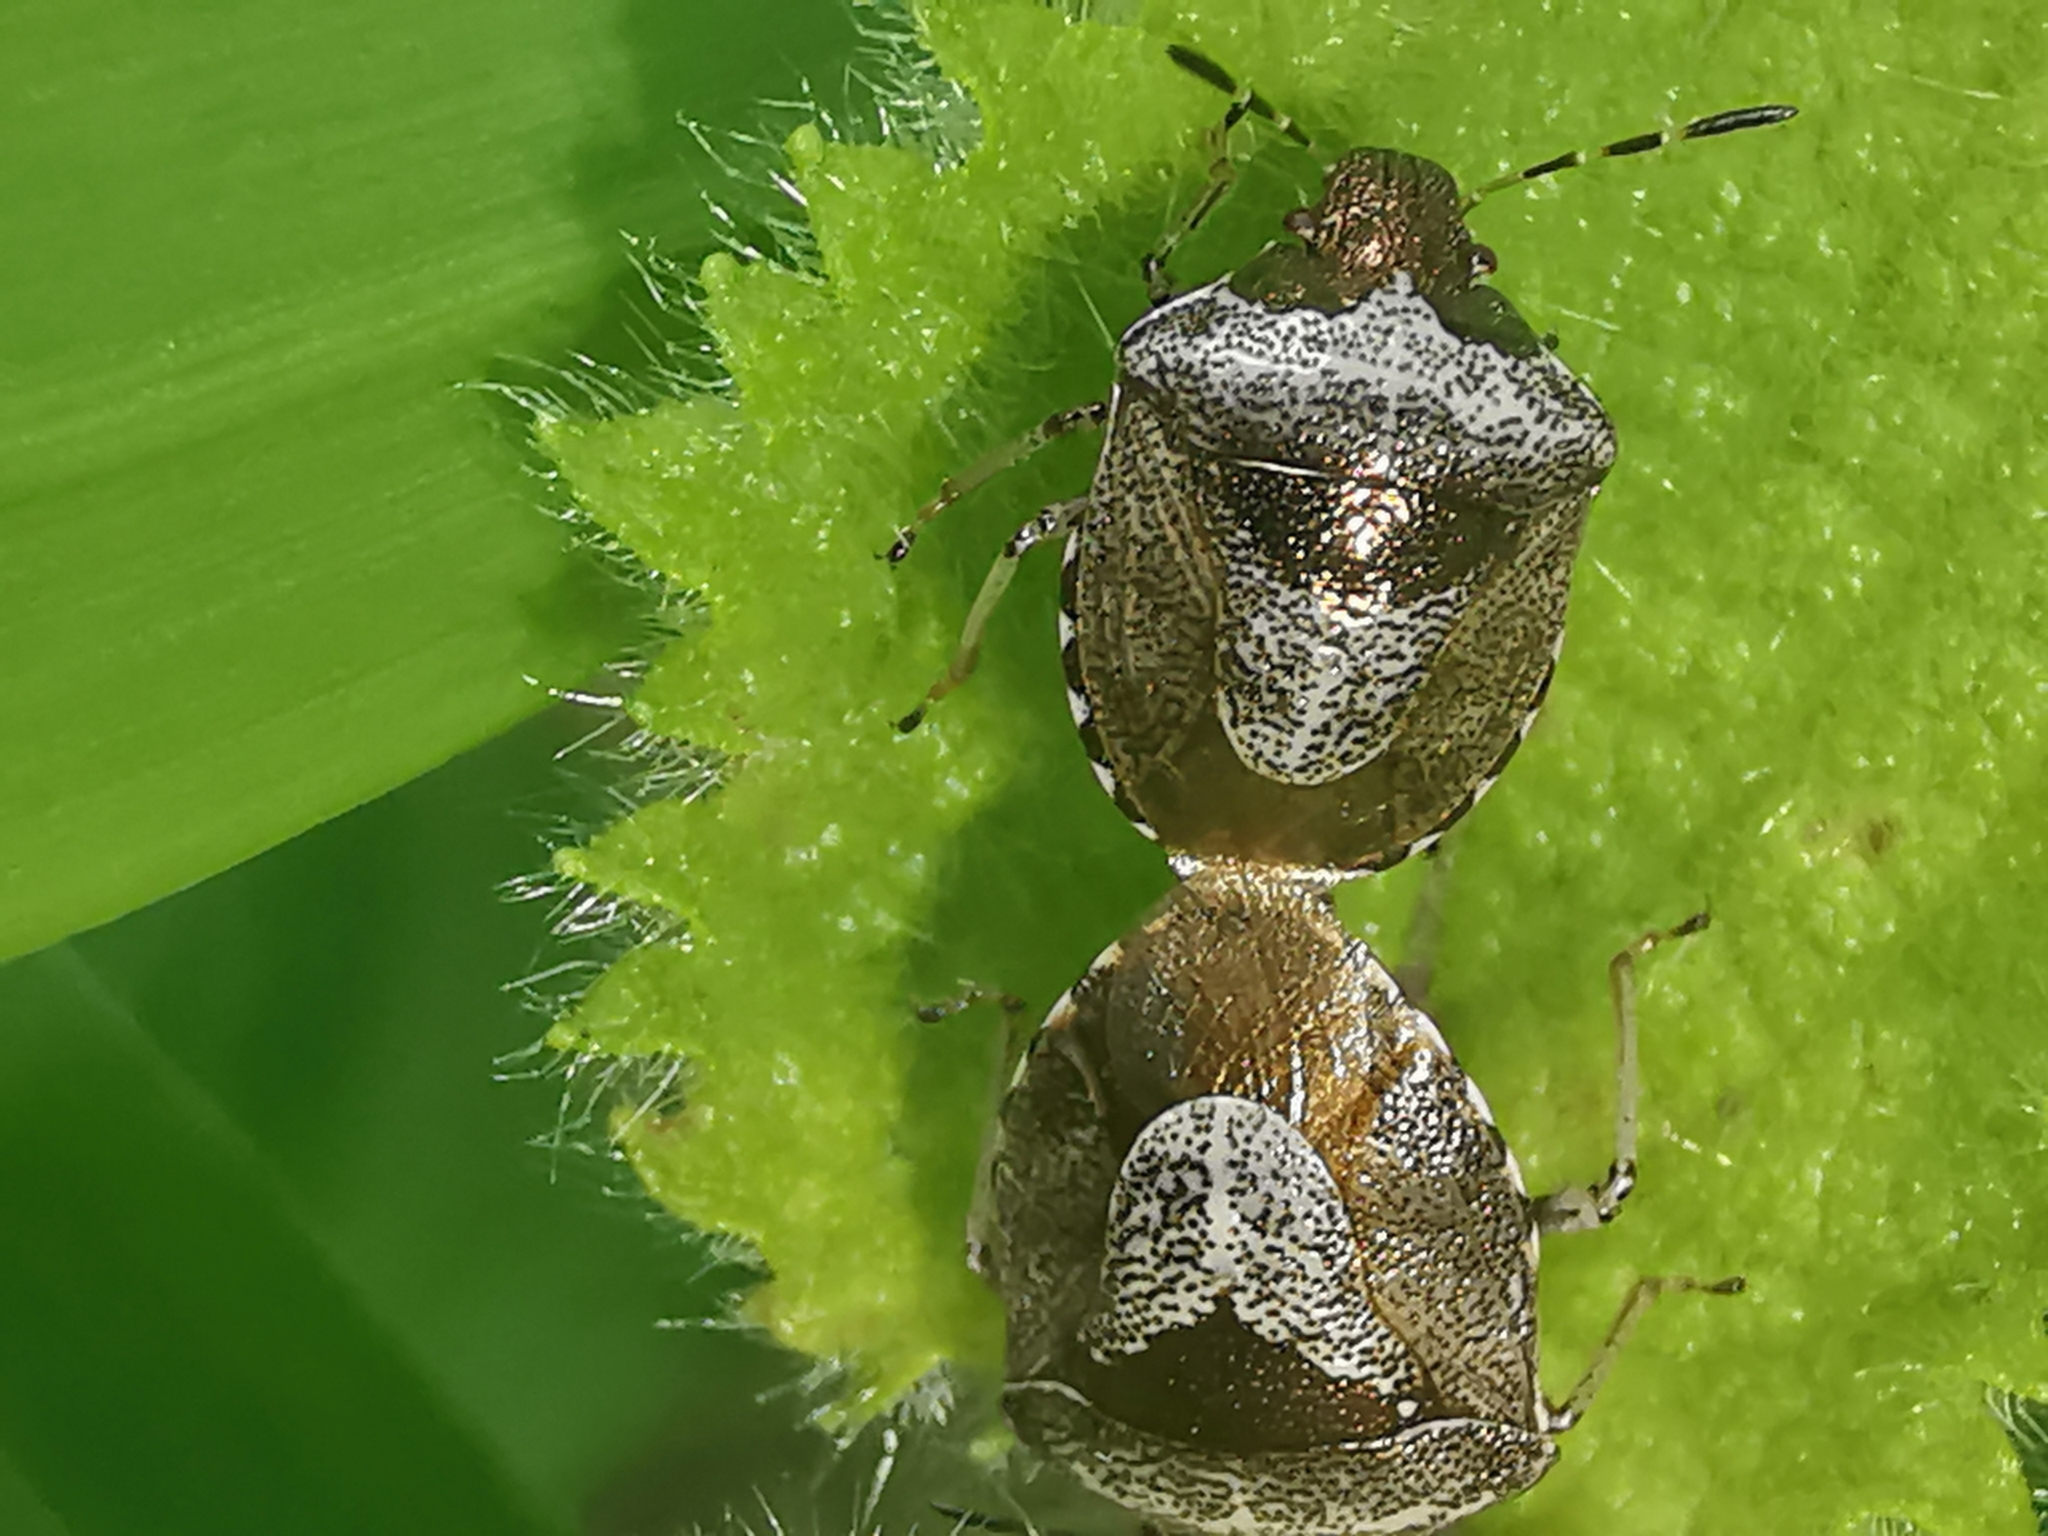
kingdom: Animalia
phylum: Arthropoda
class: Insecta
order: Hemiptera
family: Pentatomidae
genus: Eysarcoris
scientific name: Eysarcoris venustissimus
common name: Woundwort shieldbug
